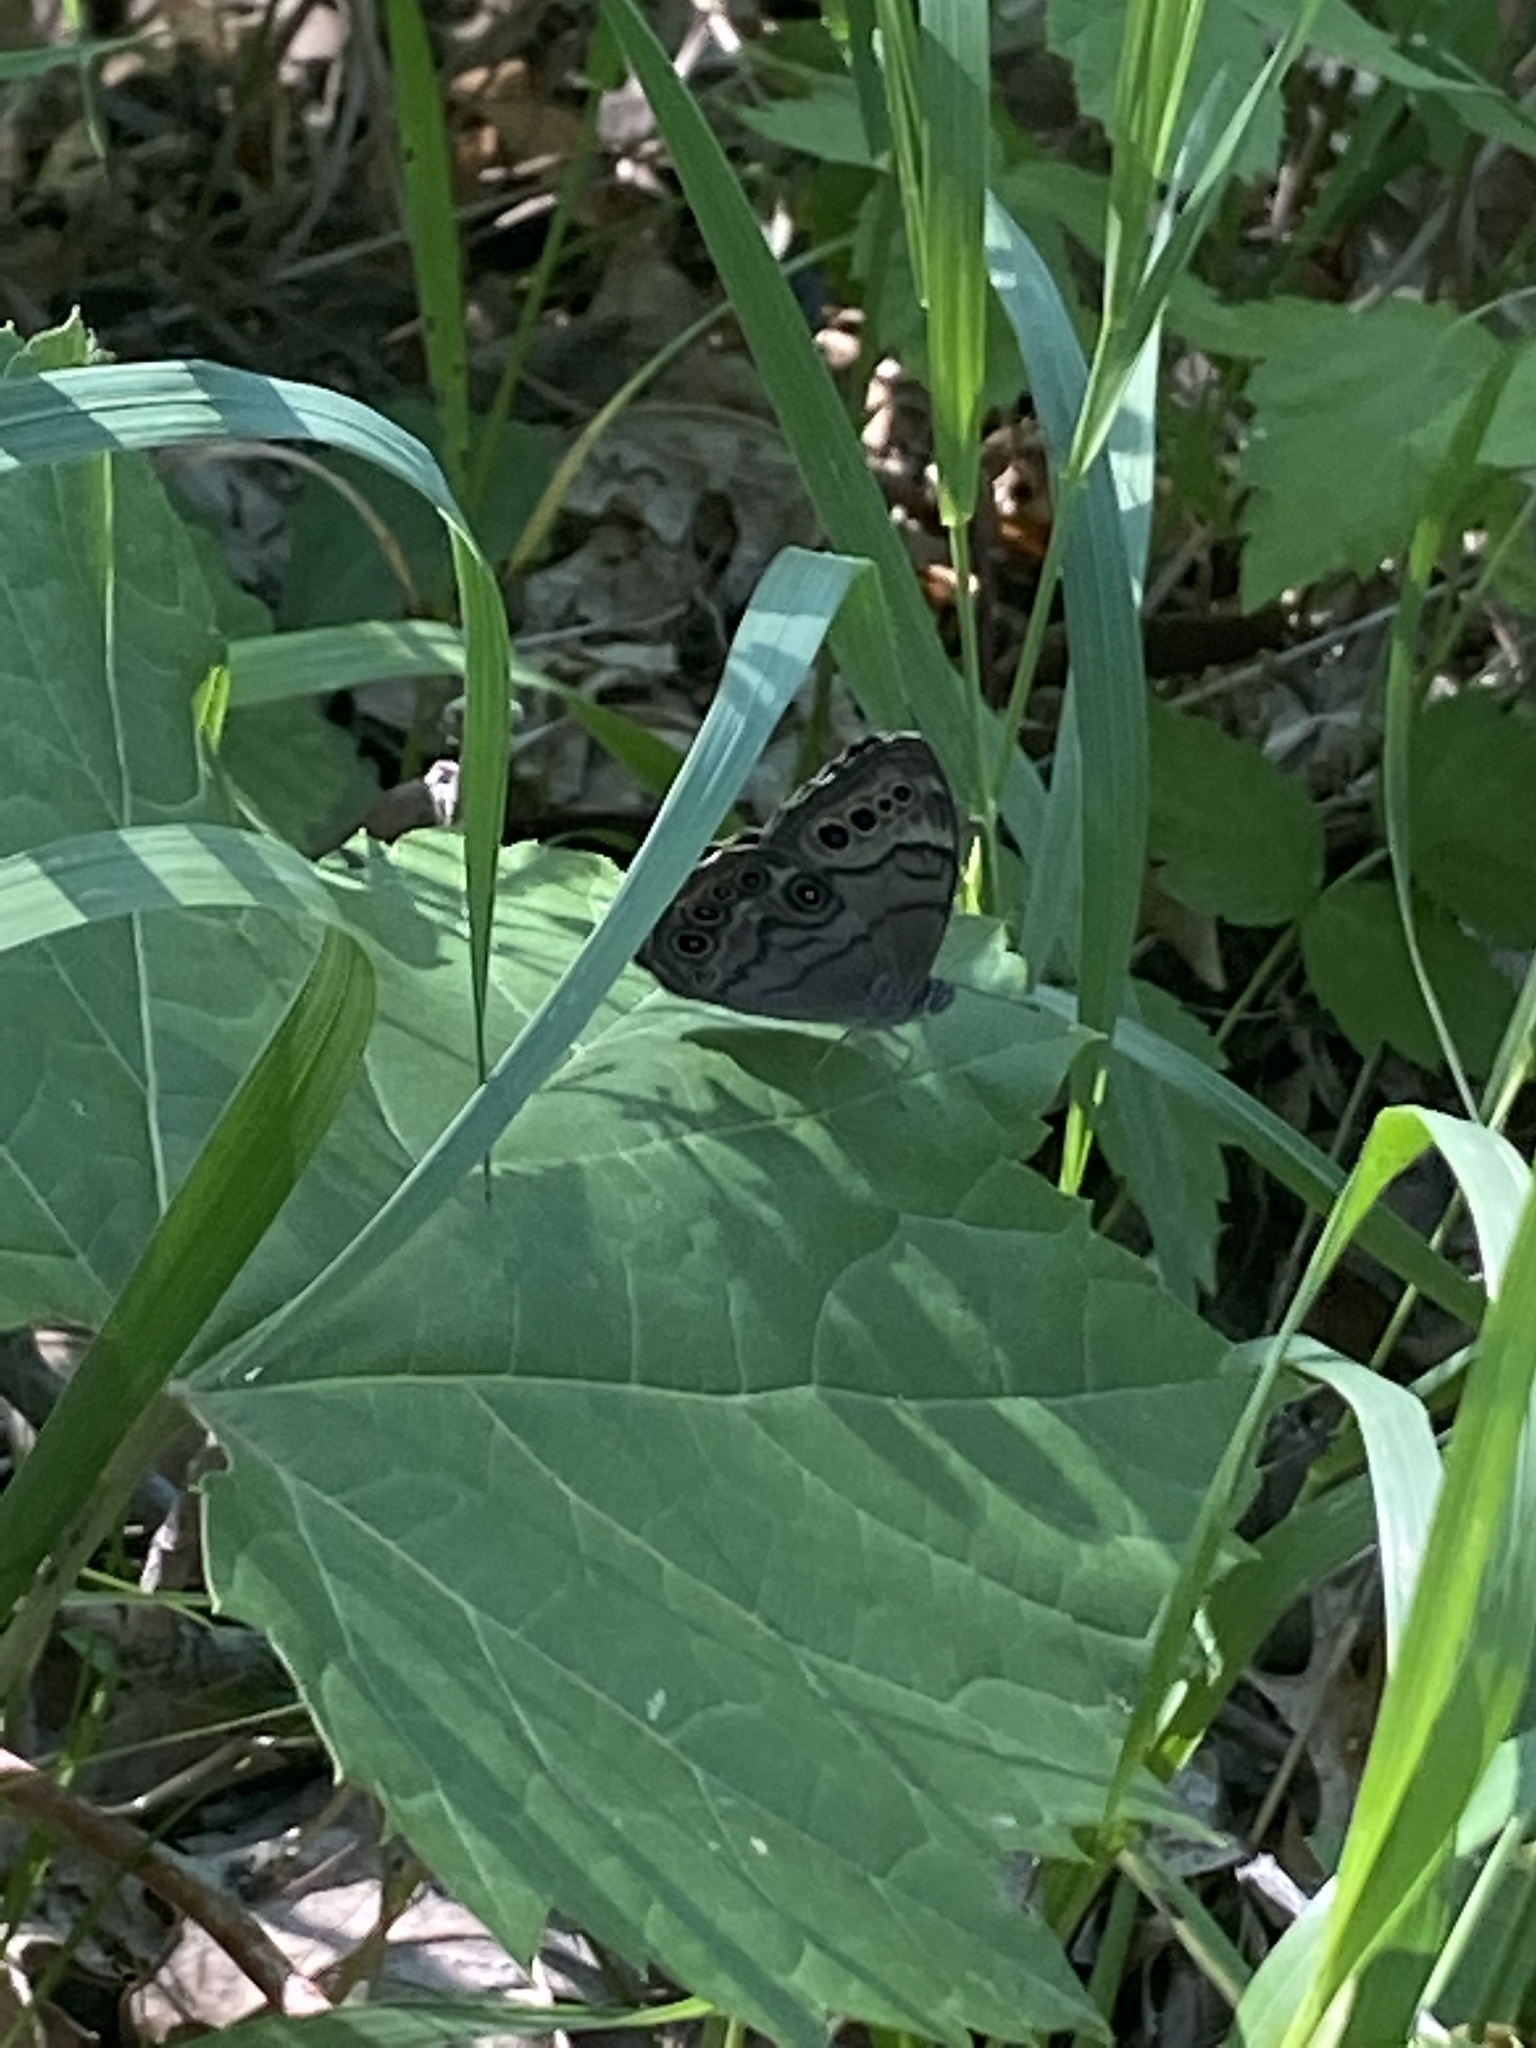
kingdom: Animalia
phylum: Arthropoda
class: Insecta
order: Lepidoptera
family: Nymphalidae
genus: Lethe
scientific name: Lethe anthedon
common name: Northern pearly-eye
